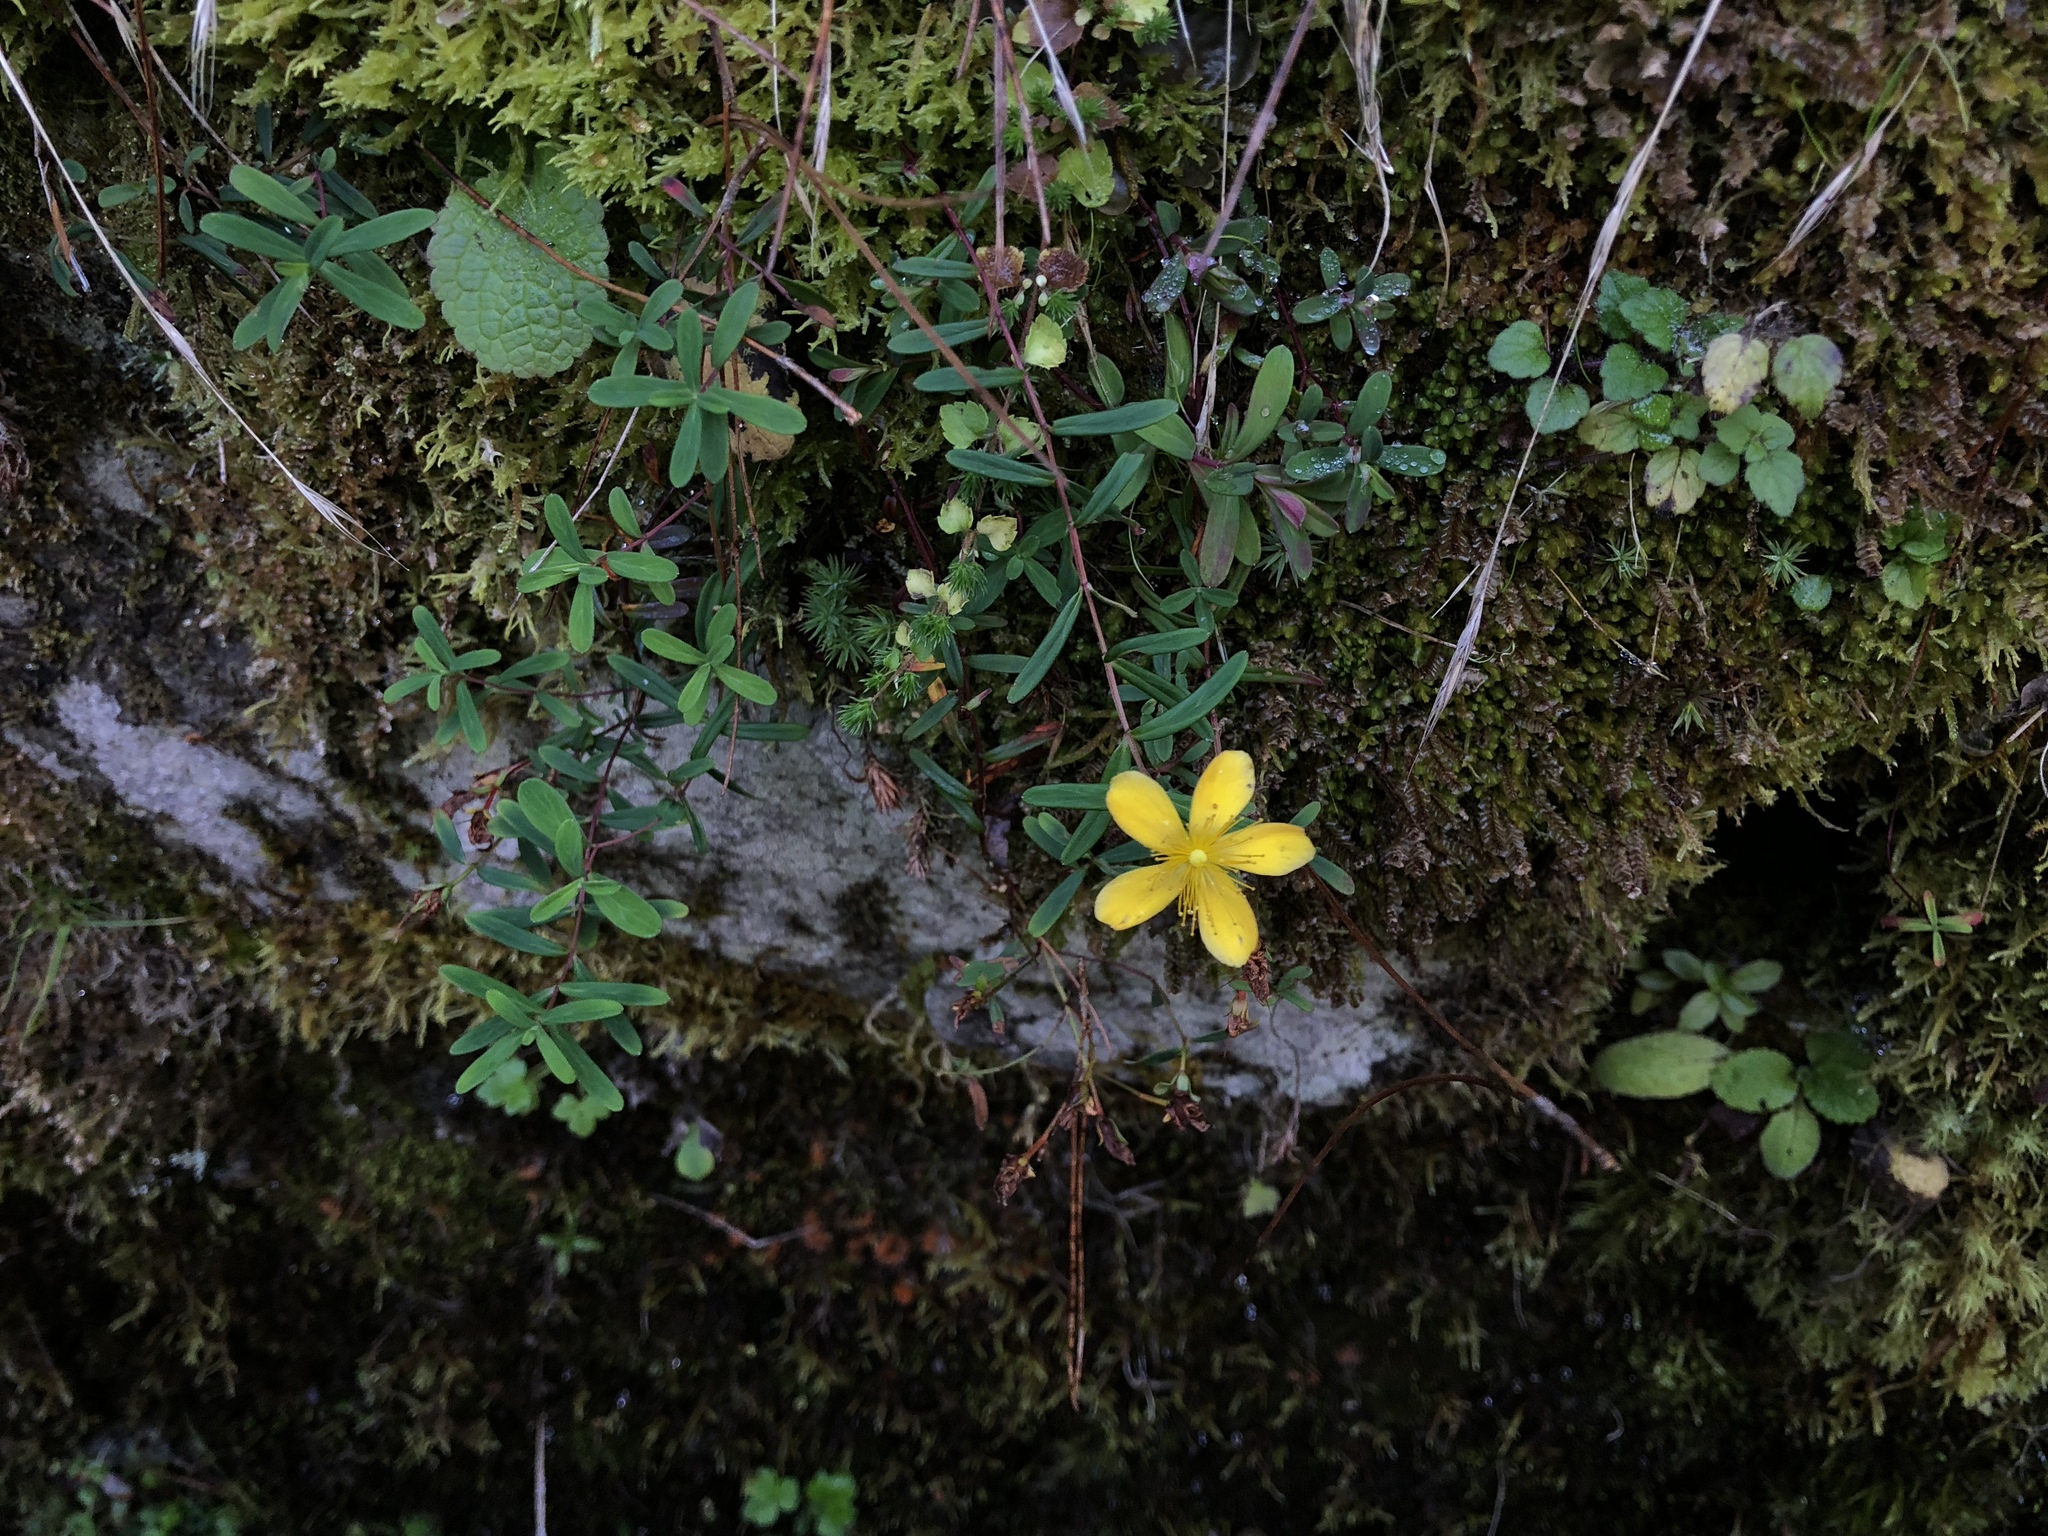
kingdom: Plantae
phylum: Tracheophyta
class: Magnoliopsida
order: Malpighiales
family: Hypericaceae
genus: Hypericum
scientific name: Hypericum nagasawae
